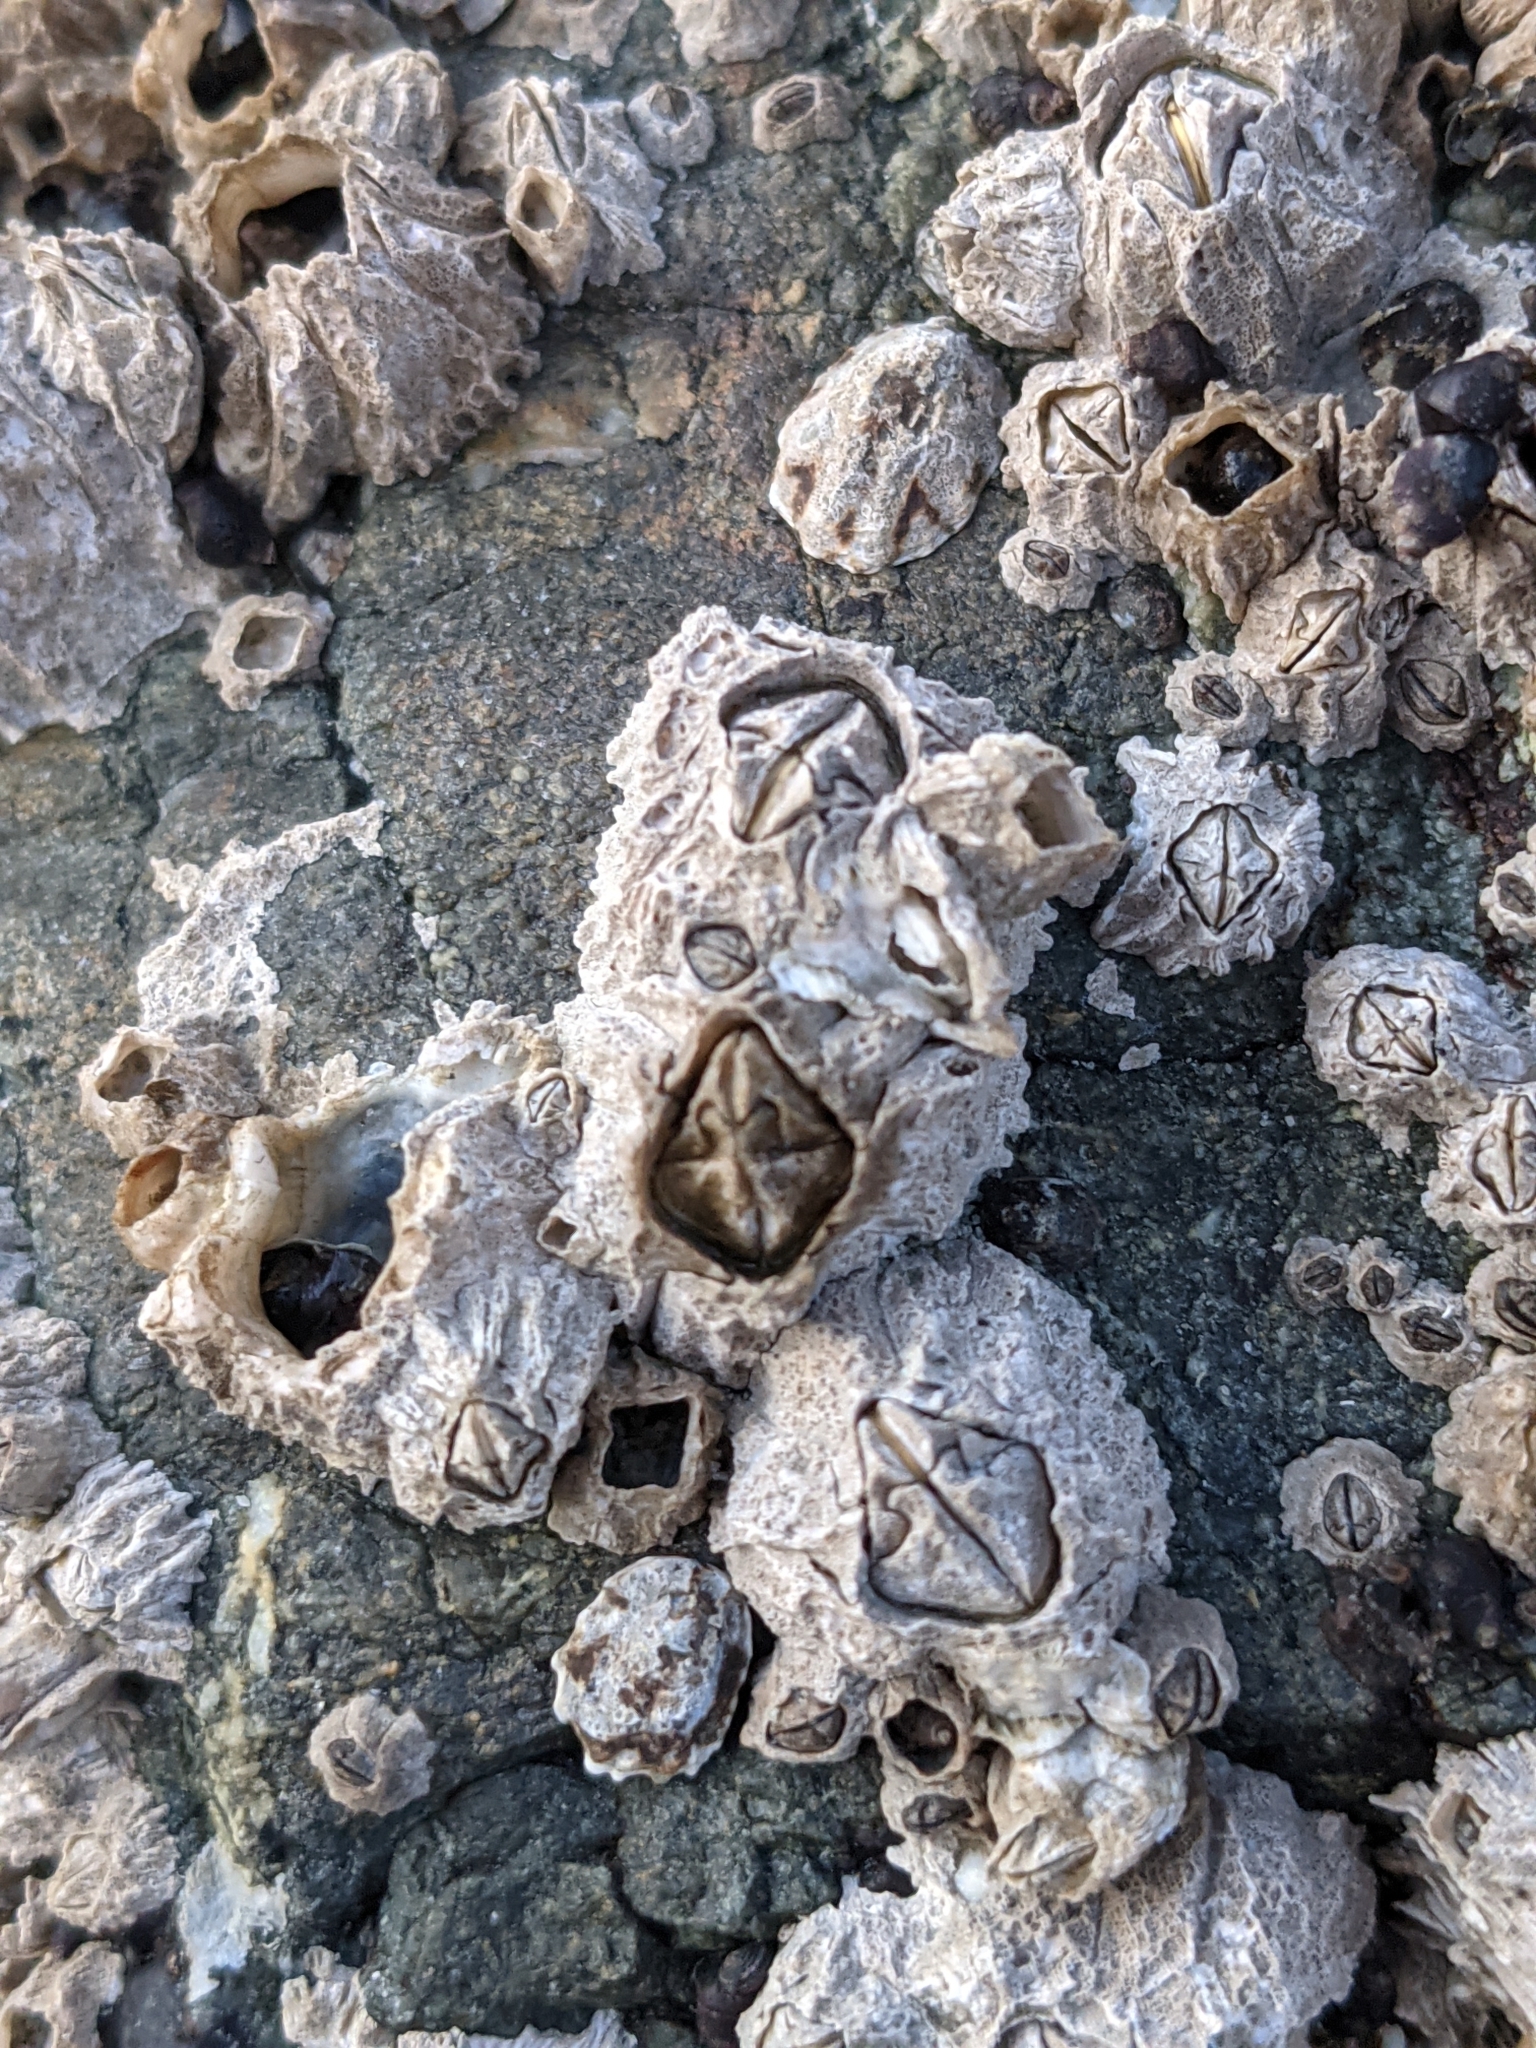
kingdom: Animalia
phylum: Arthropoda
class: Maxillopoda
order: Sessilia
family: Balanidae
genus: Balanus
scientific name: Balanus glandula
